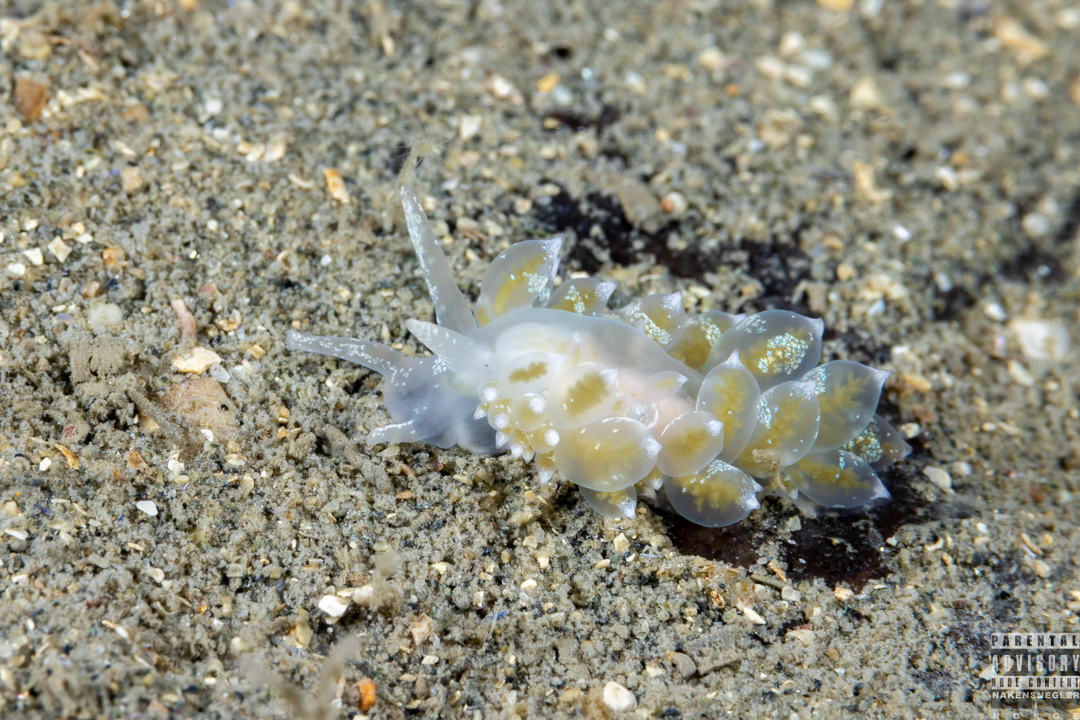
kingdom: Animalia
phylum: Mollusca
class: Gastropoda
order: Nudibranchia
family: Eubranchidae
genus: Amphorina
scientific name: Amphorina pallida
